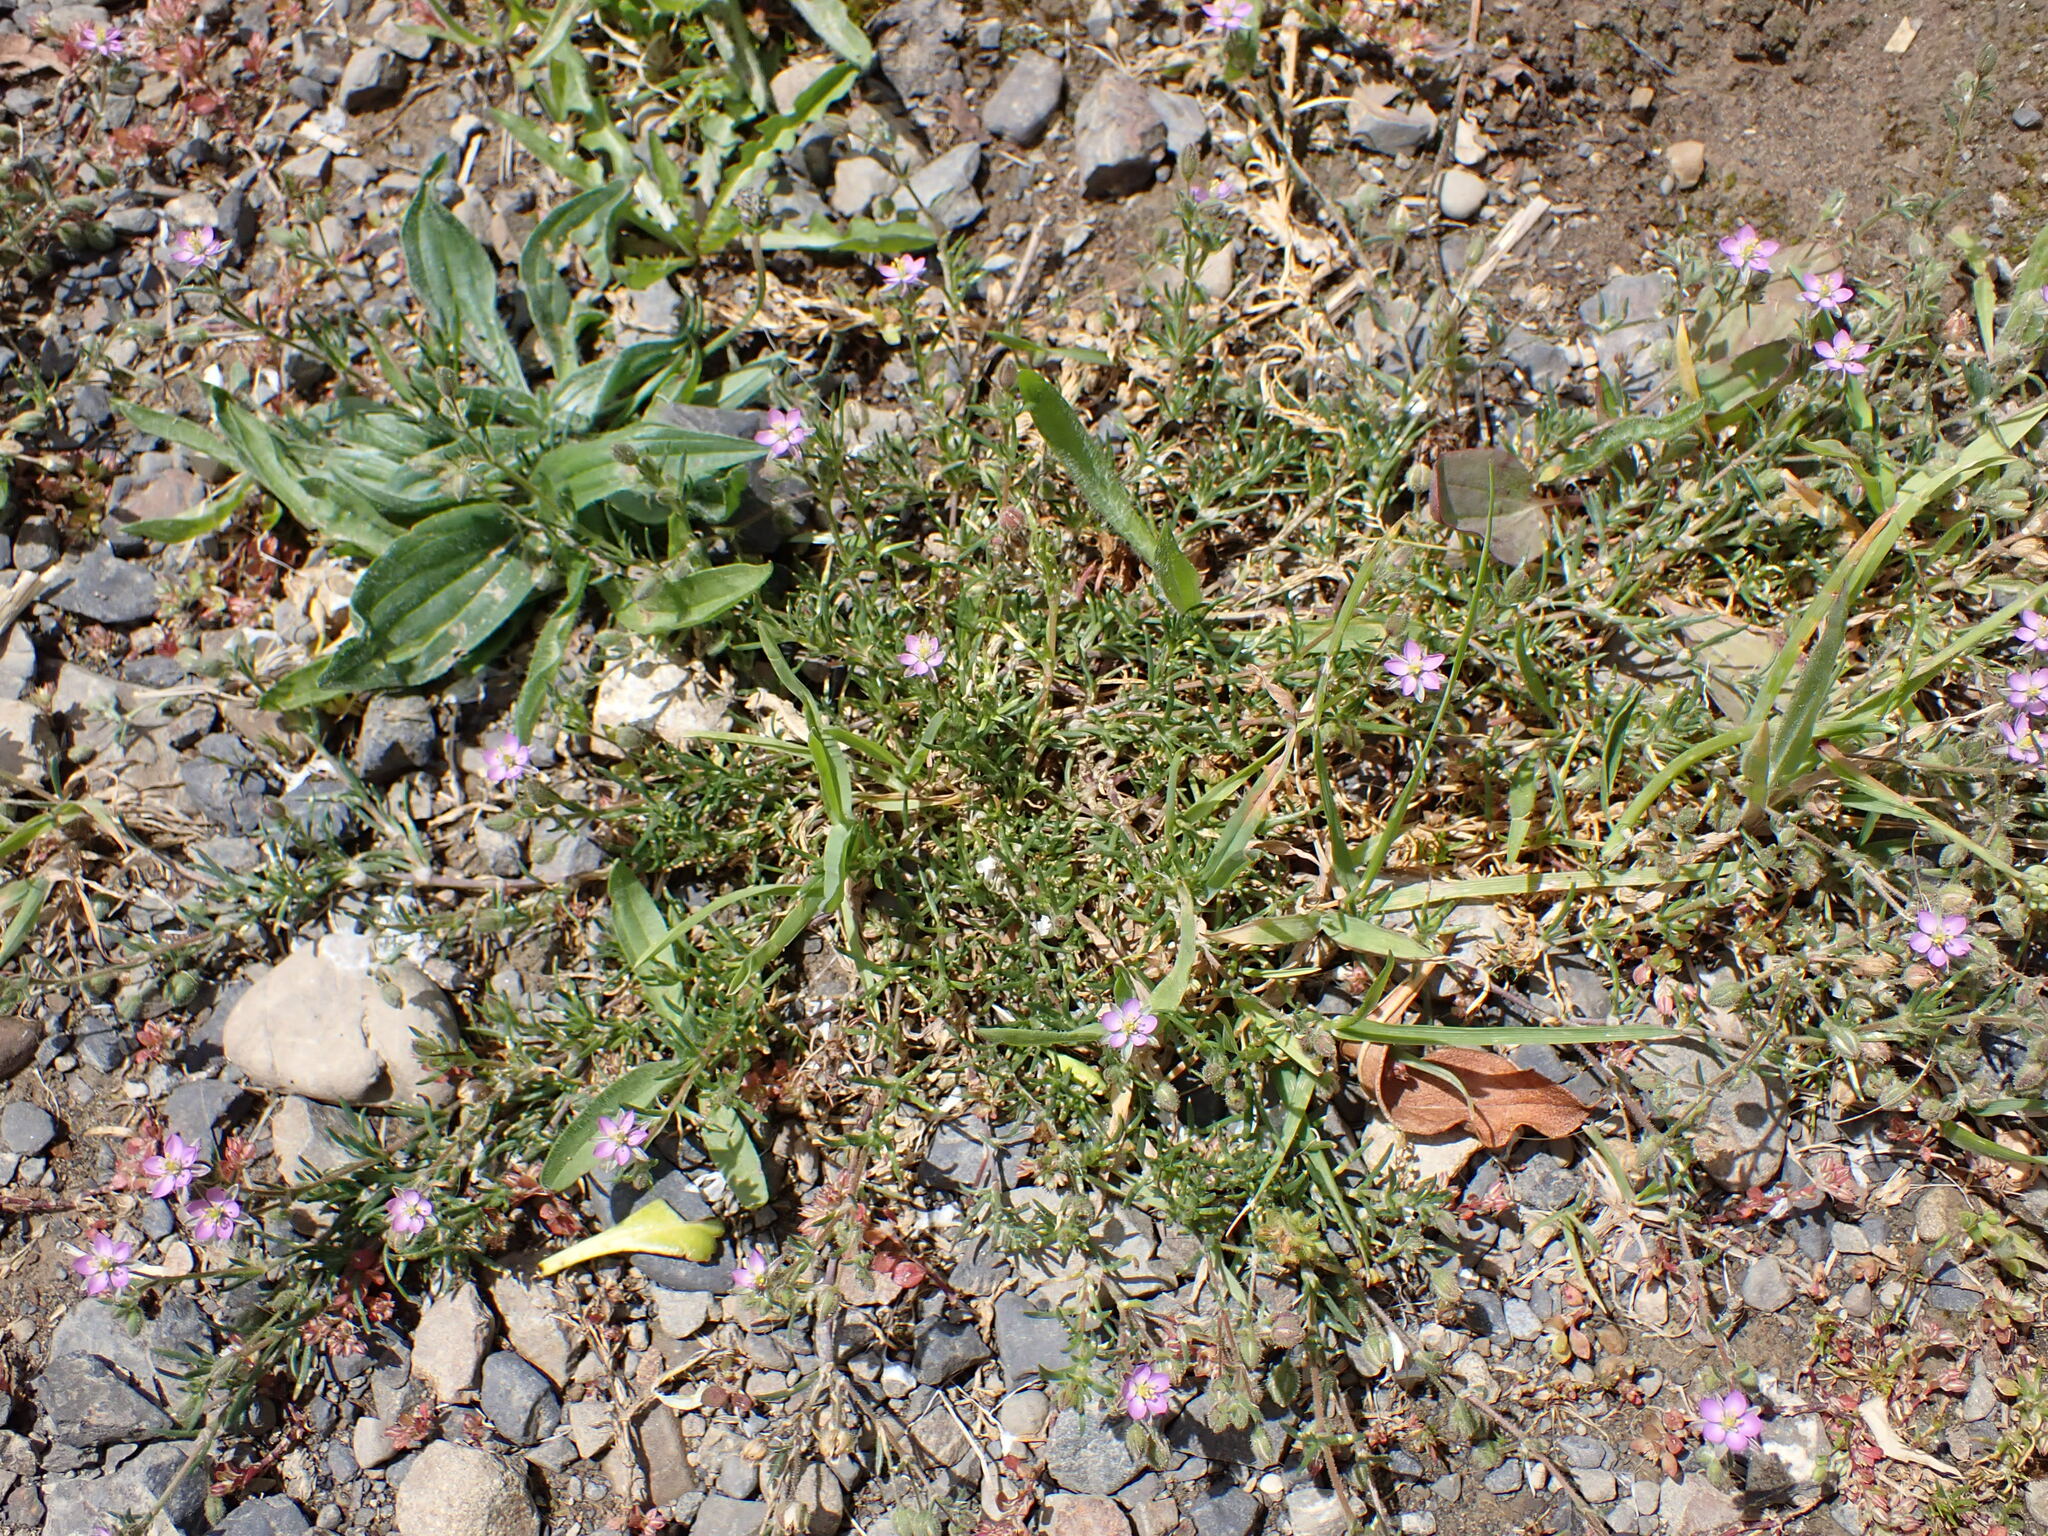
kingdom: Plantae
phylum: Tracheophyta
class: Magnoliopsida
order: Caryophyllales
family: Caryophyllaceae
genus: Spergularia
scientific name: Spergularia rubra
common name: Red sand-spurrey
